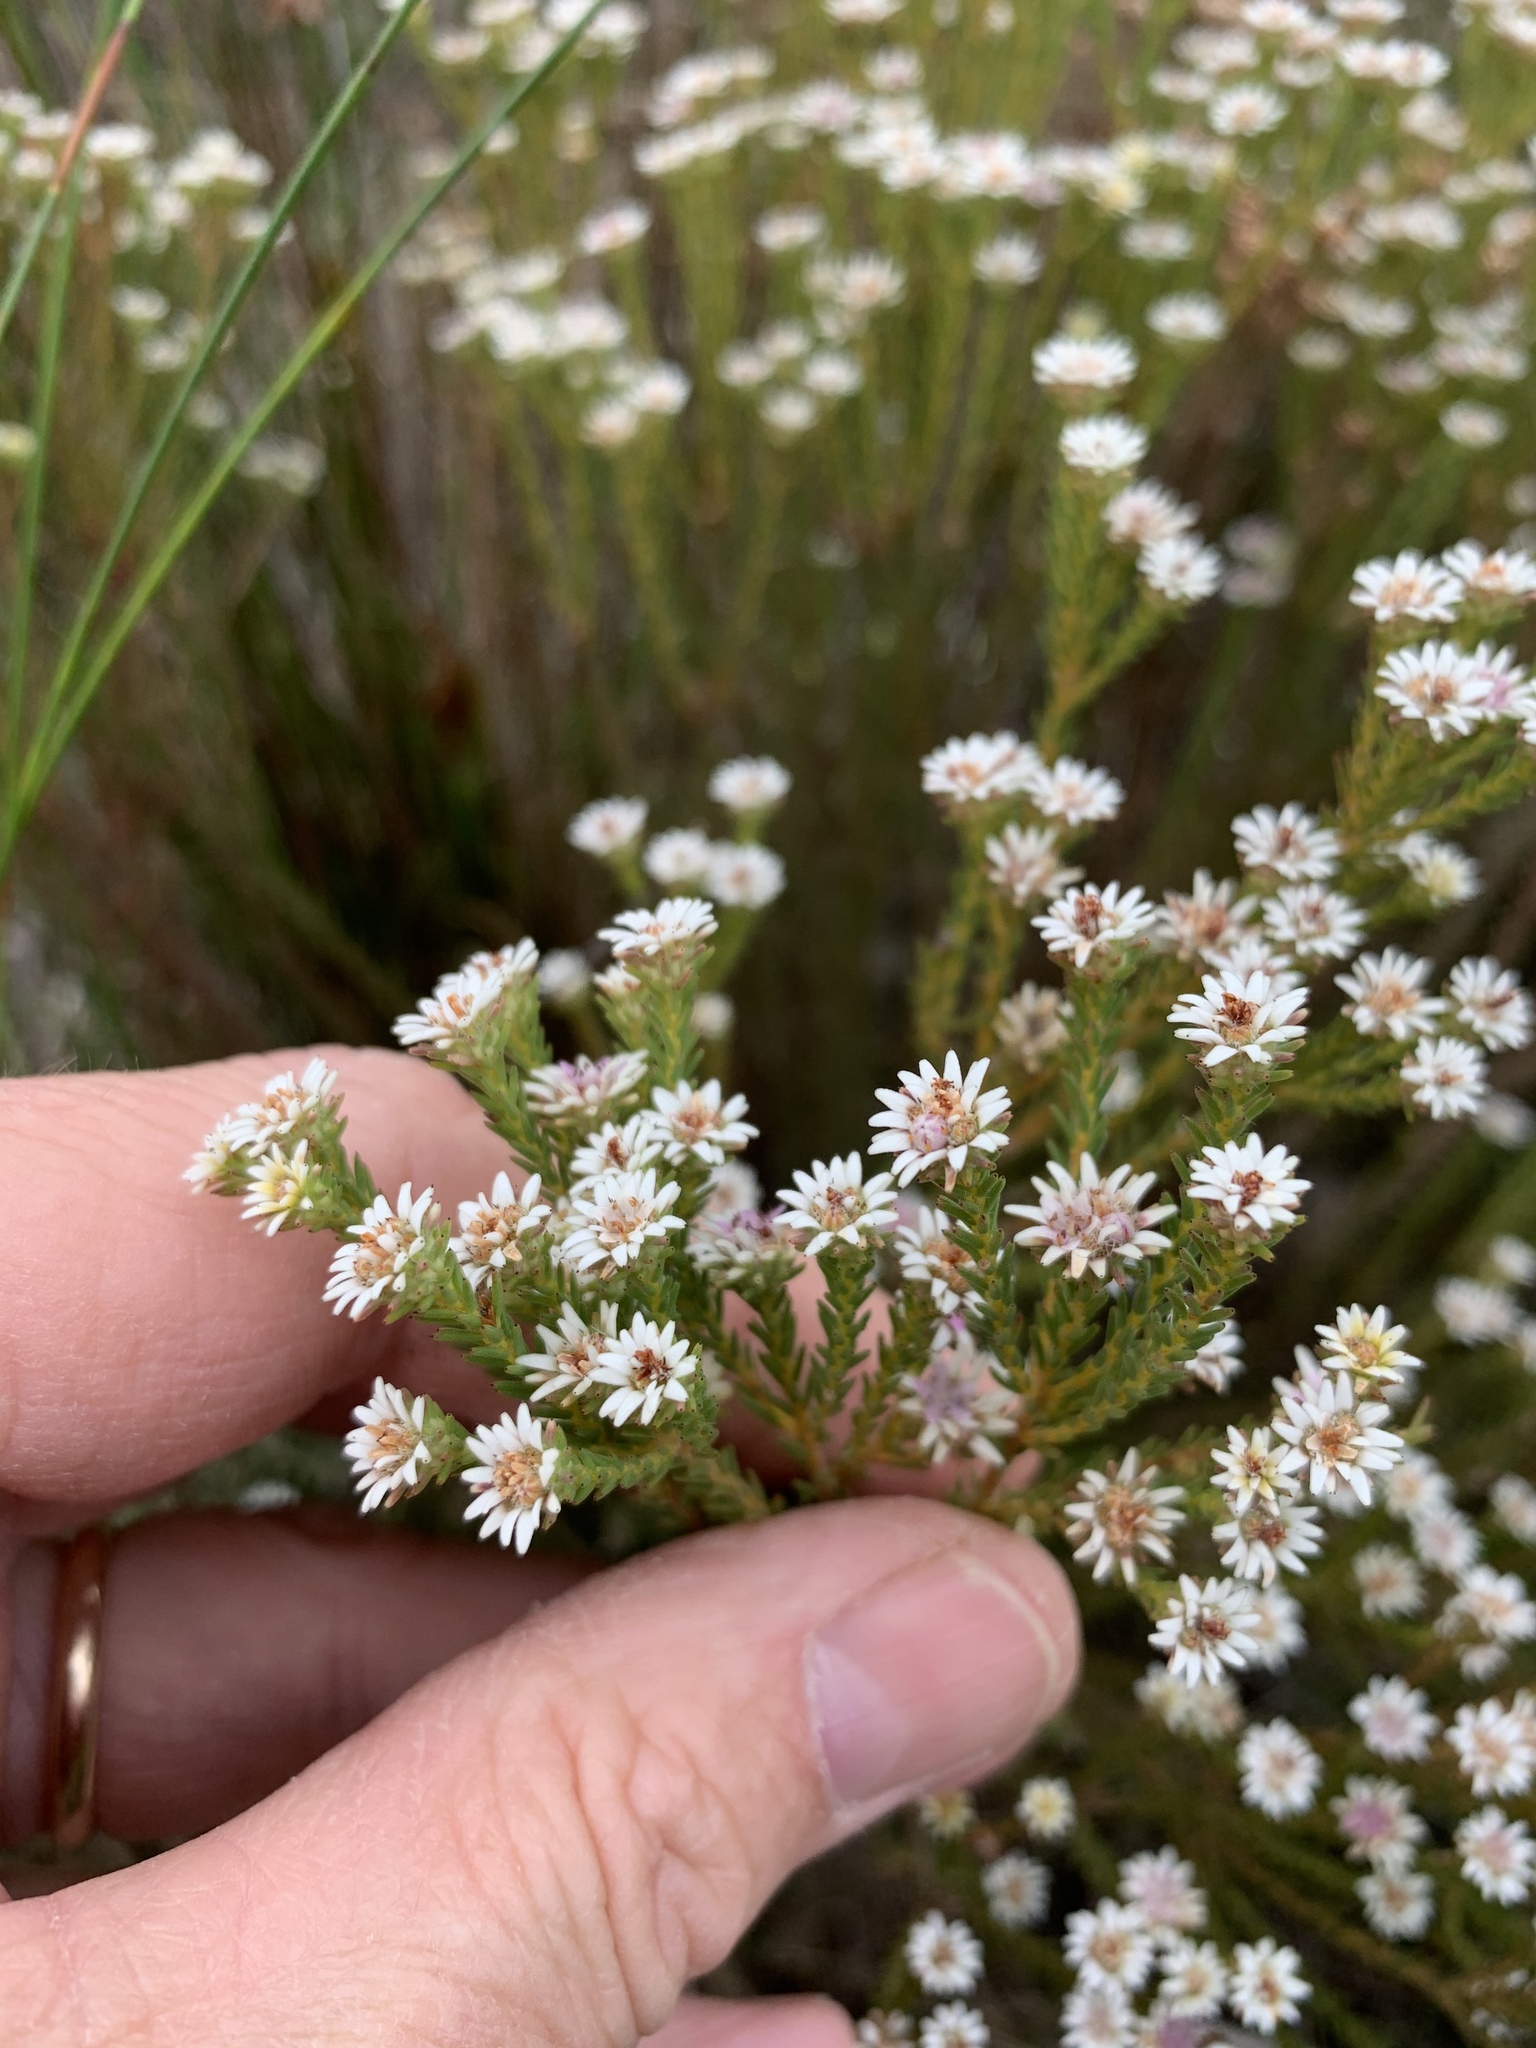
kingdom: Plantae
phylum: Tracheophyta
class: Magnoliopsida
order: Bruniales
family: Bruniaceae
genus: Staavia
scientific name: Staavia radiata
